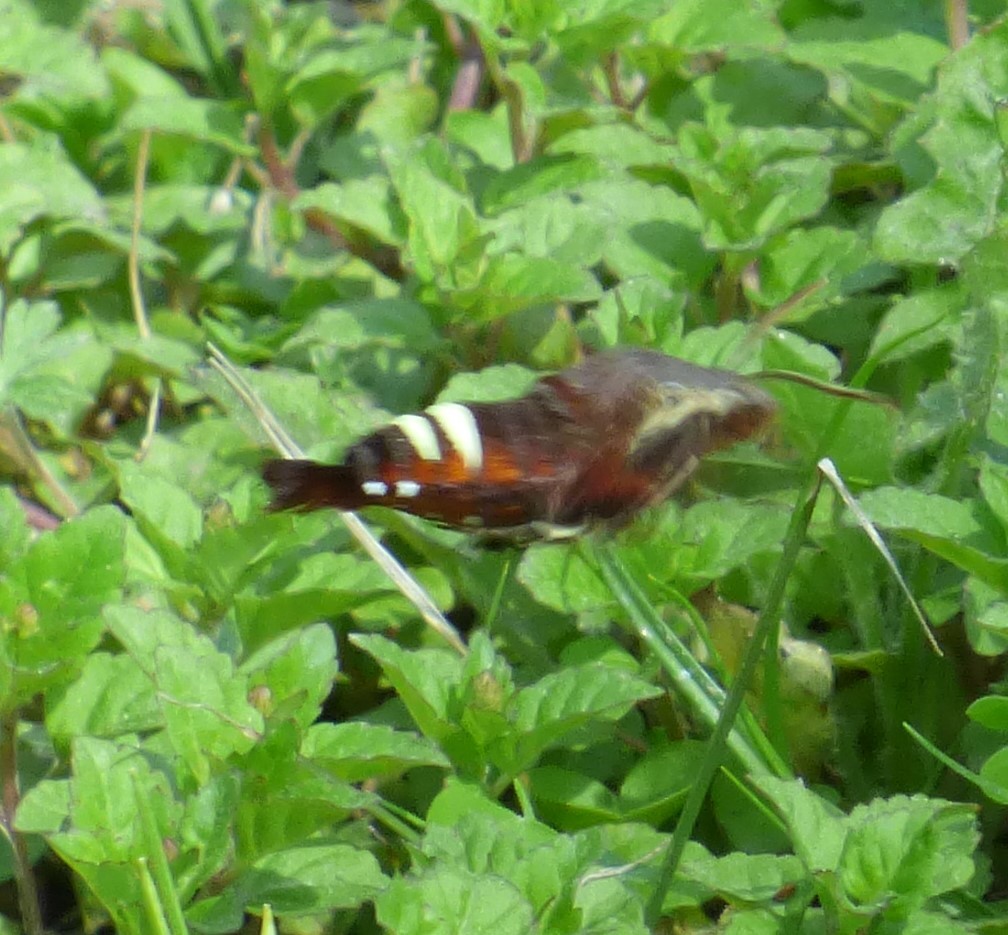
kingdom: Animalia
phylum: Arthropoda
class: Insecta
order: Lepidoptera
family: Sphingidae
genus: Amphion
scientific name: Amphion floridensis
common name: Nessus sphinx
